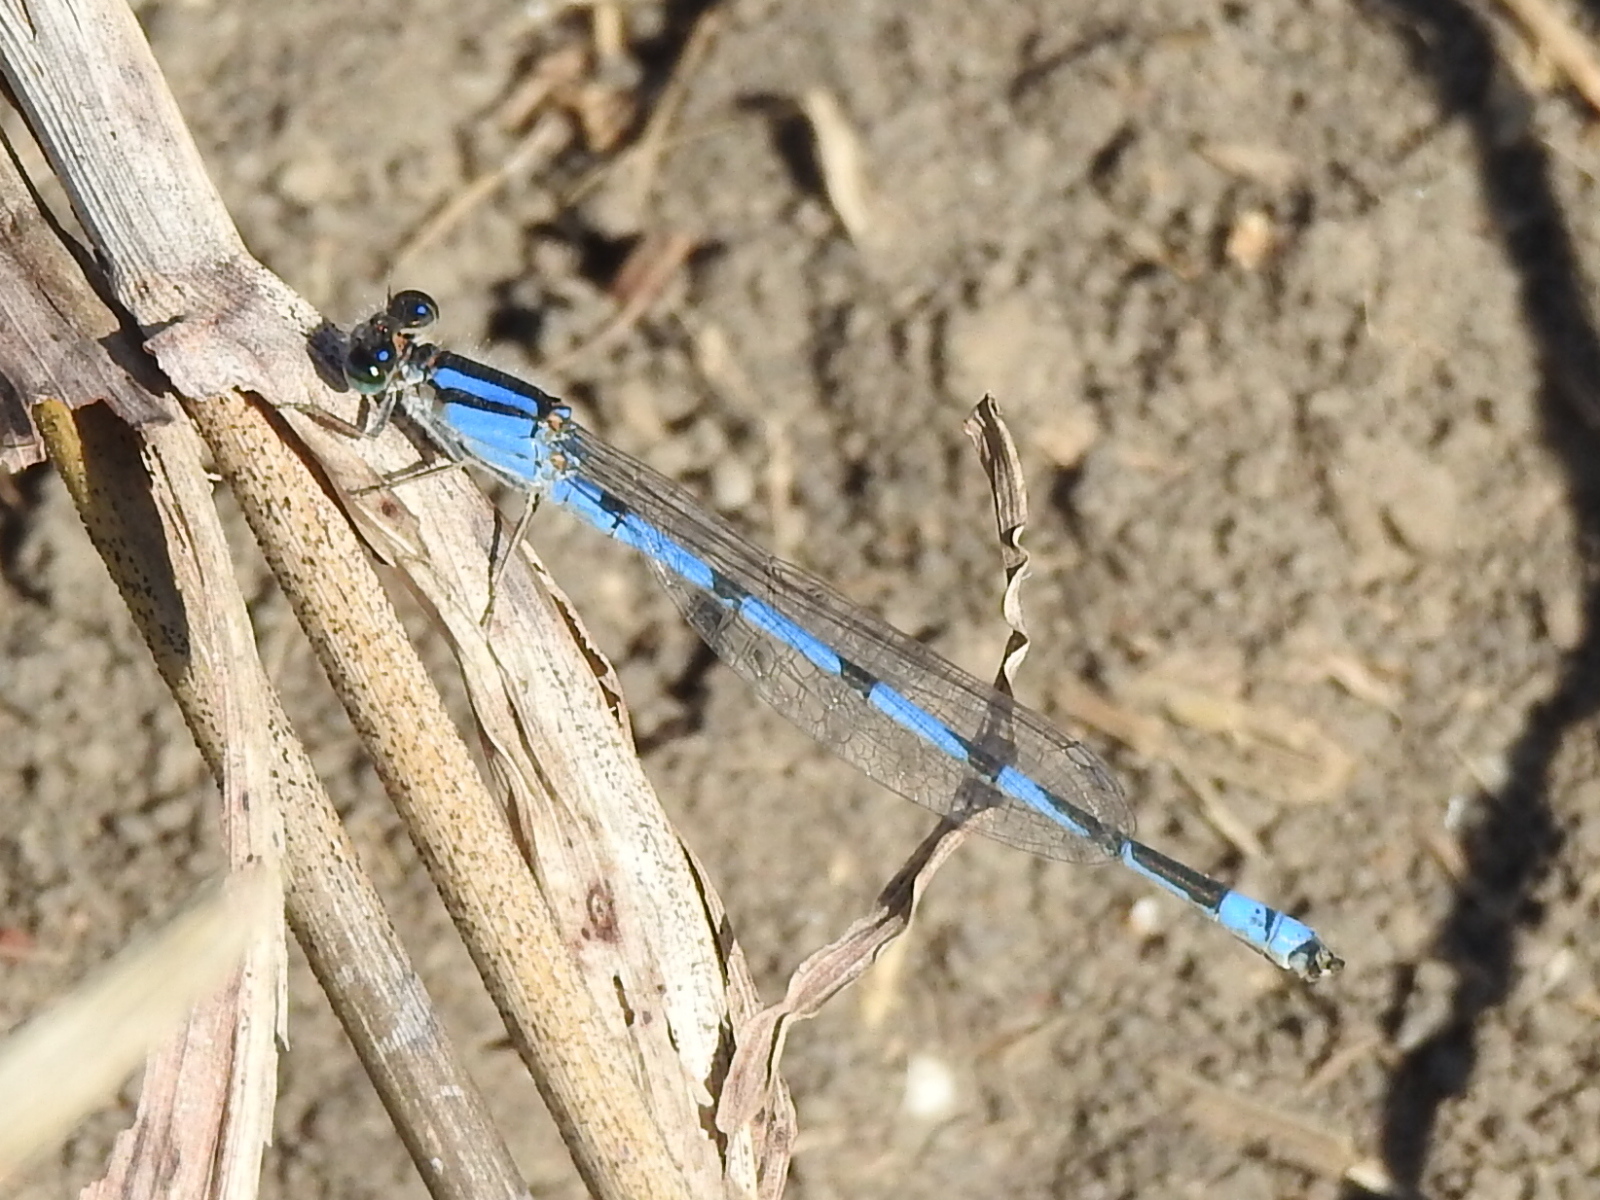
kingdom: Animalia
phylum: Arthropoda
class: Insecta
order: Odonata
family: Coenagrionidae
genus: Enallagma
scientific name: Enallagma civile
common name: Damselfly
